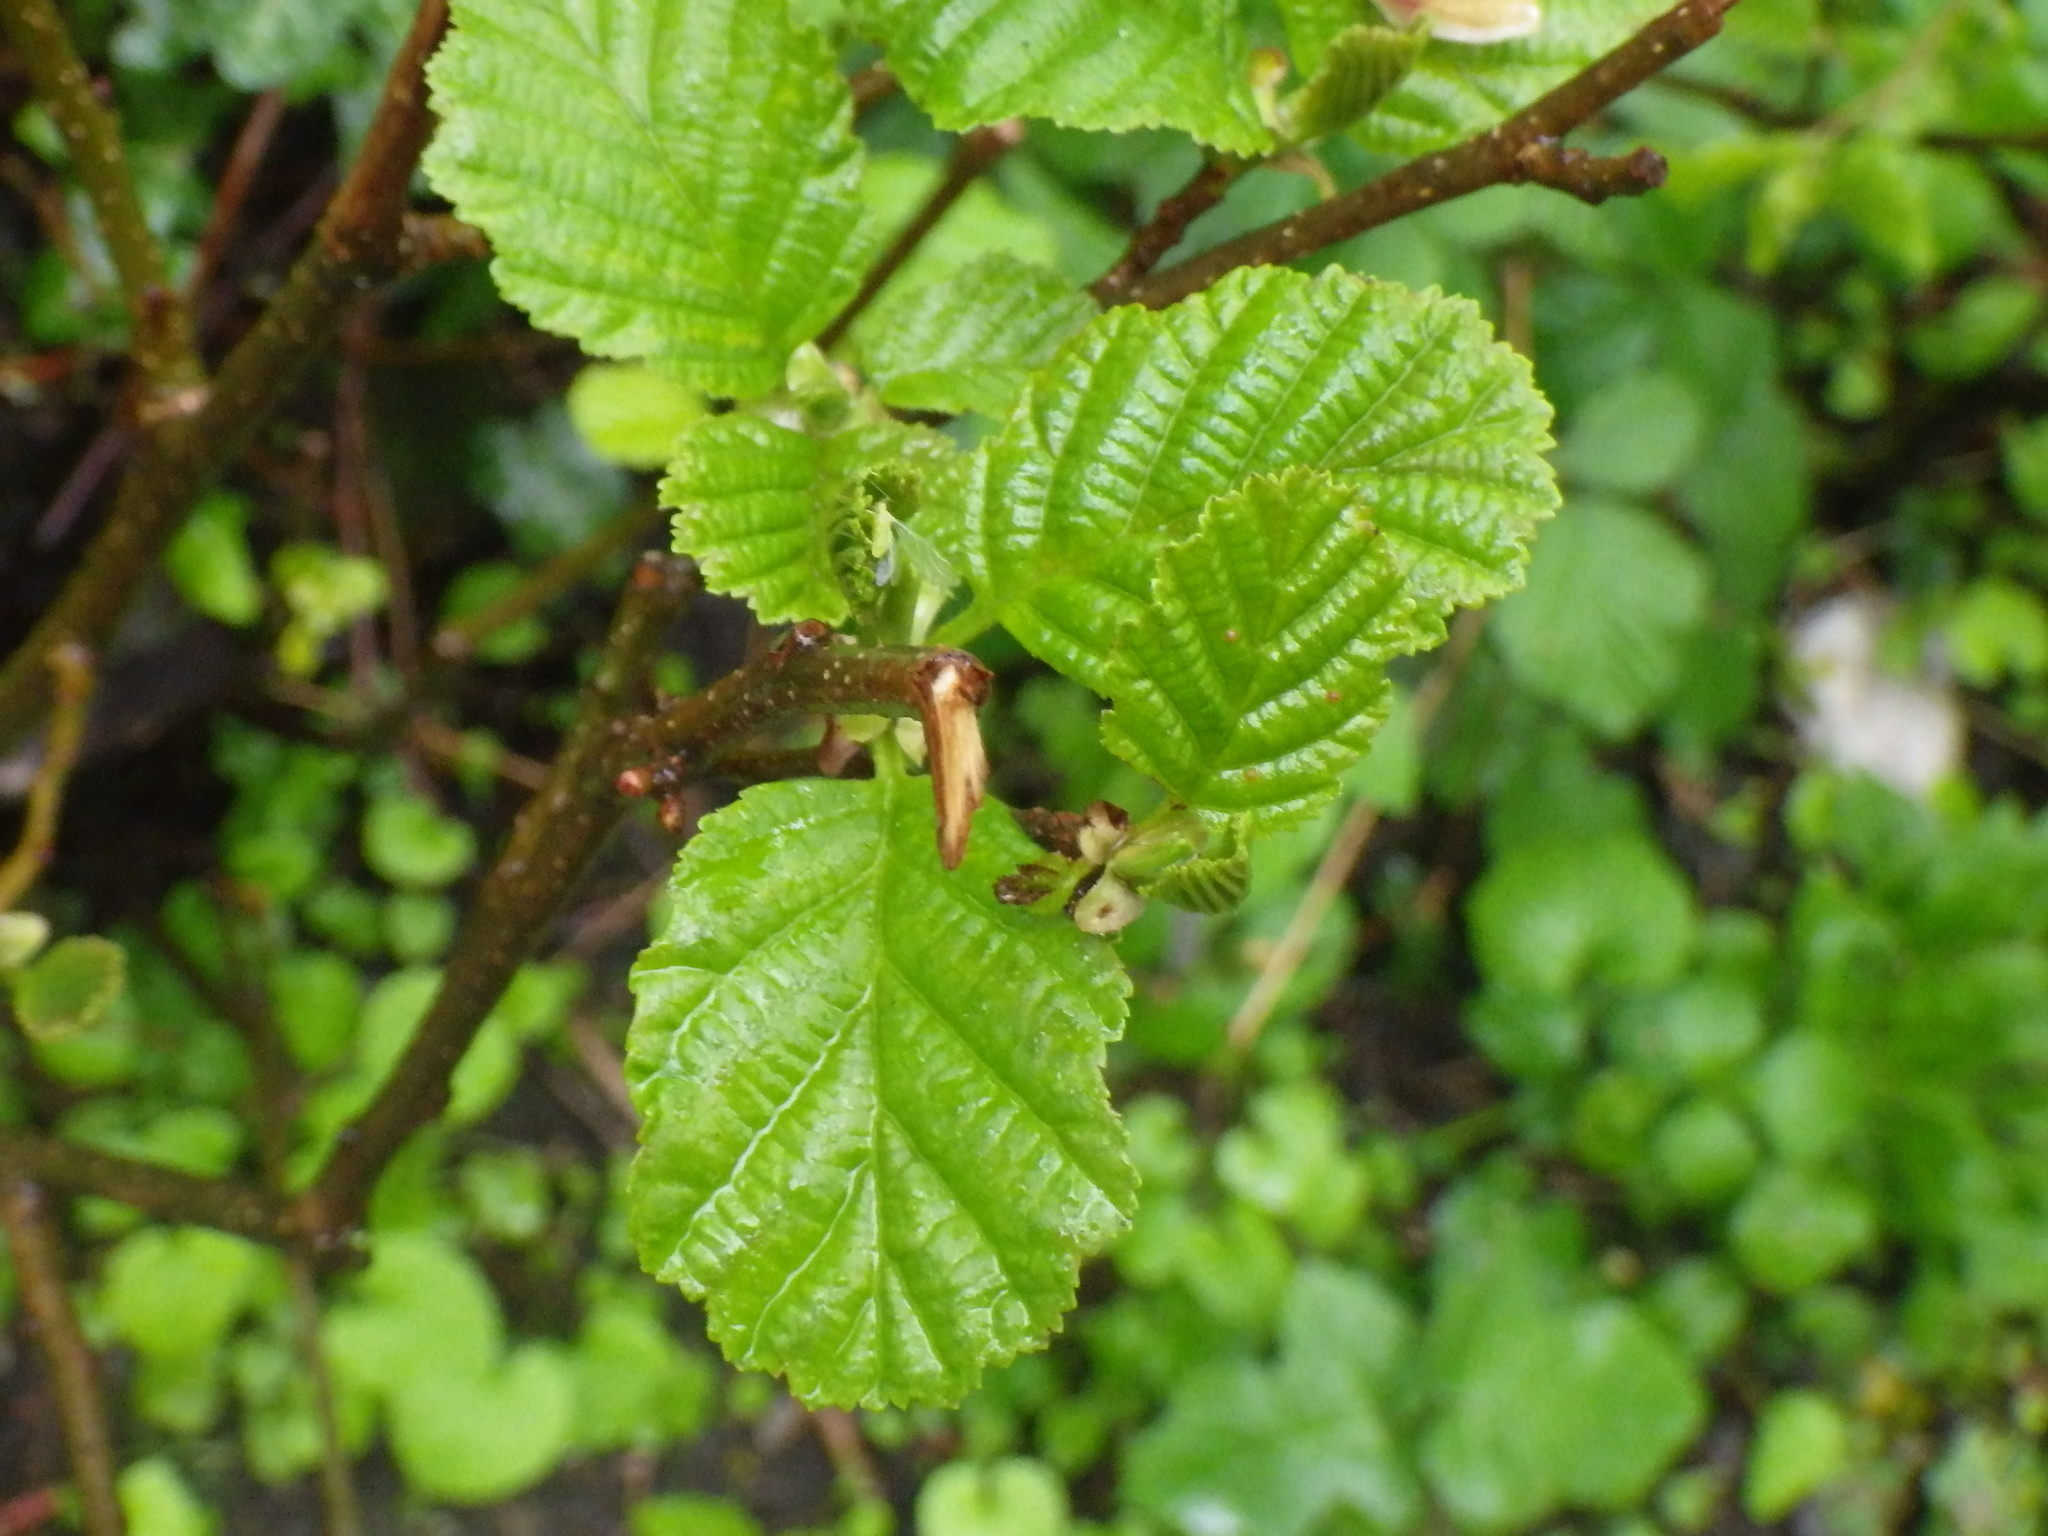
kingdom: Plantae
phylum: Tracheophyta
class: Magnoliopsida
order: Fagales
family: Betulaceae
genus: Alnus
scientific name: Alnus glutinosa
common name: Black alder
